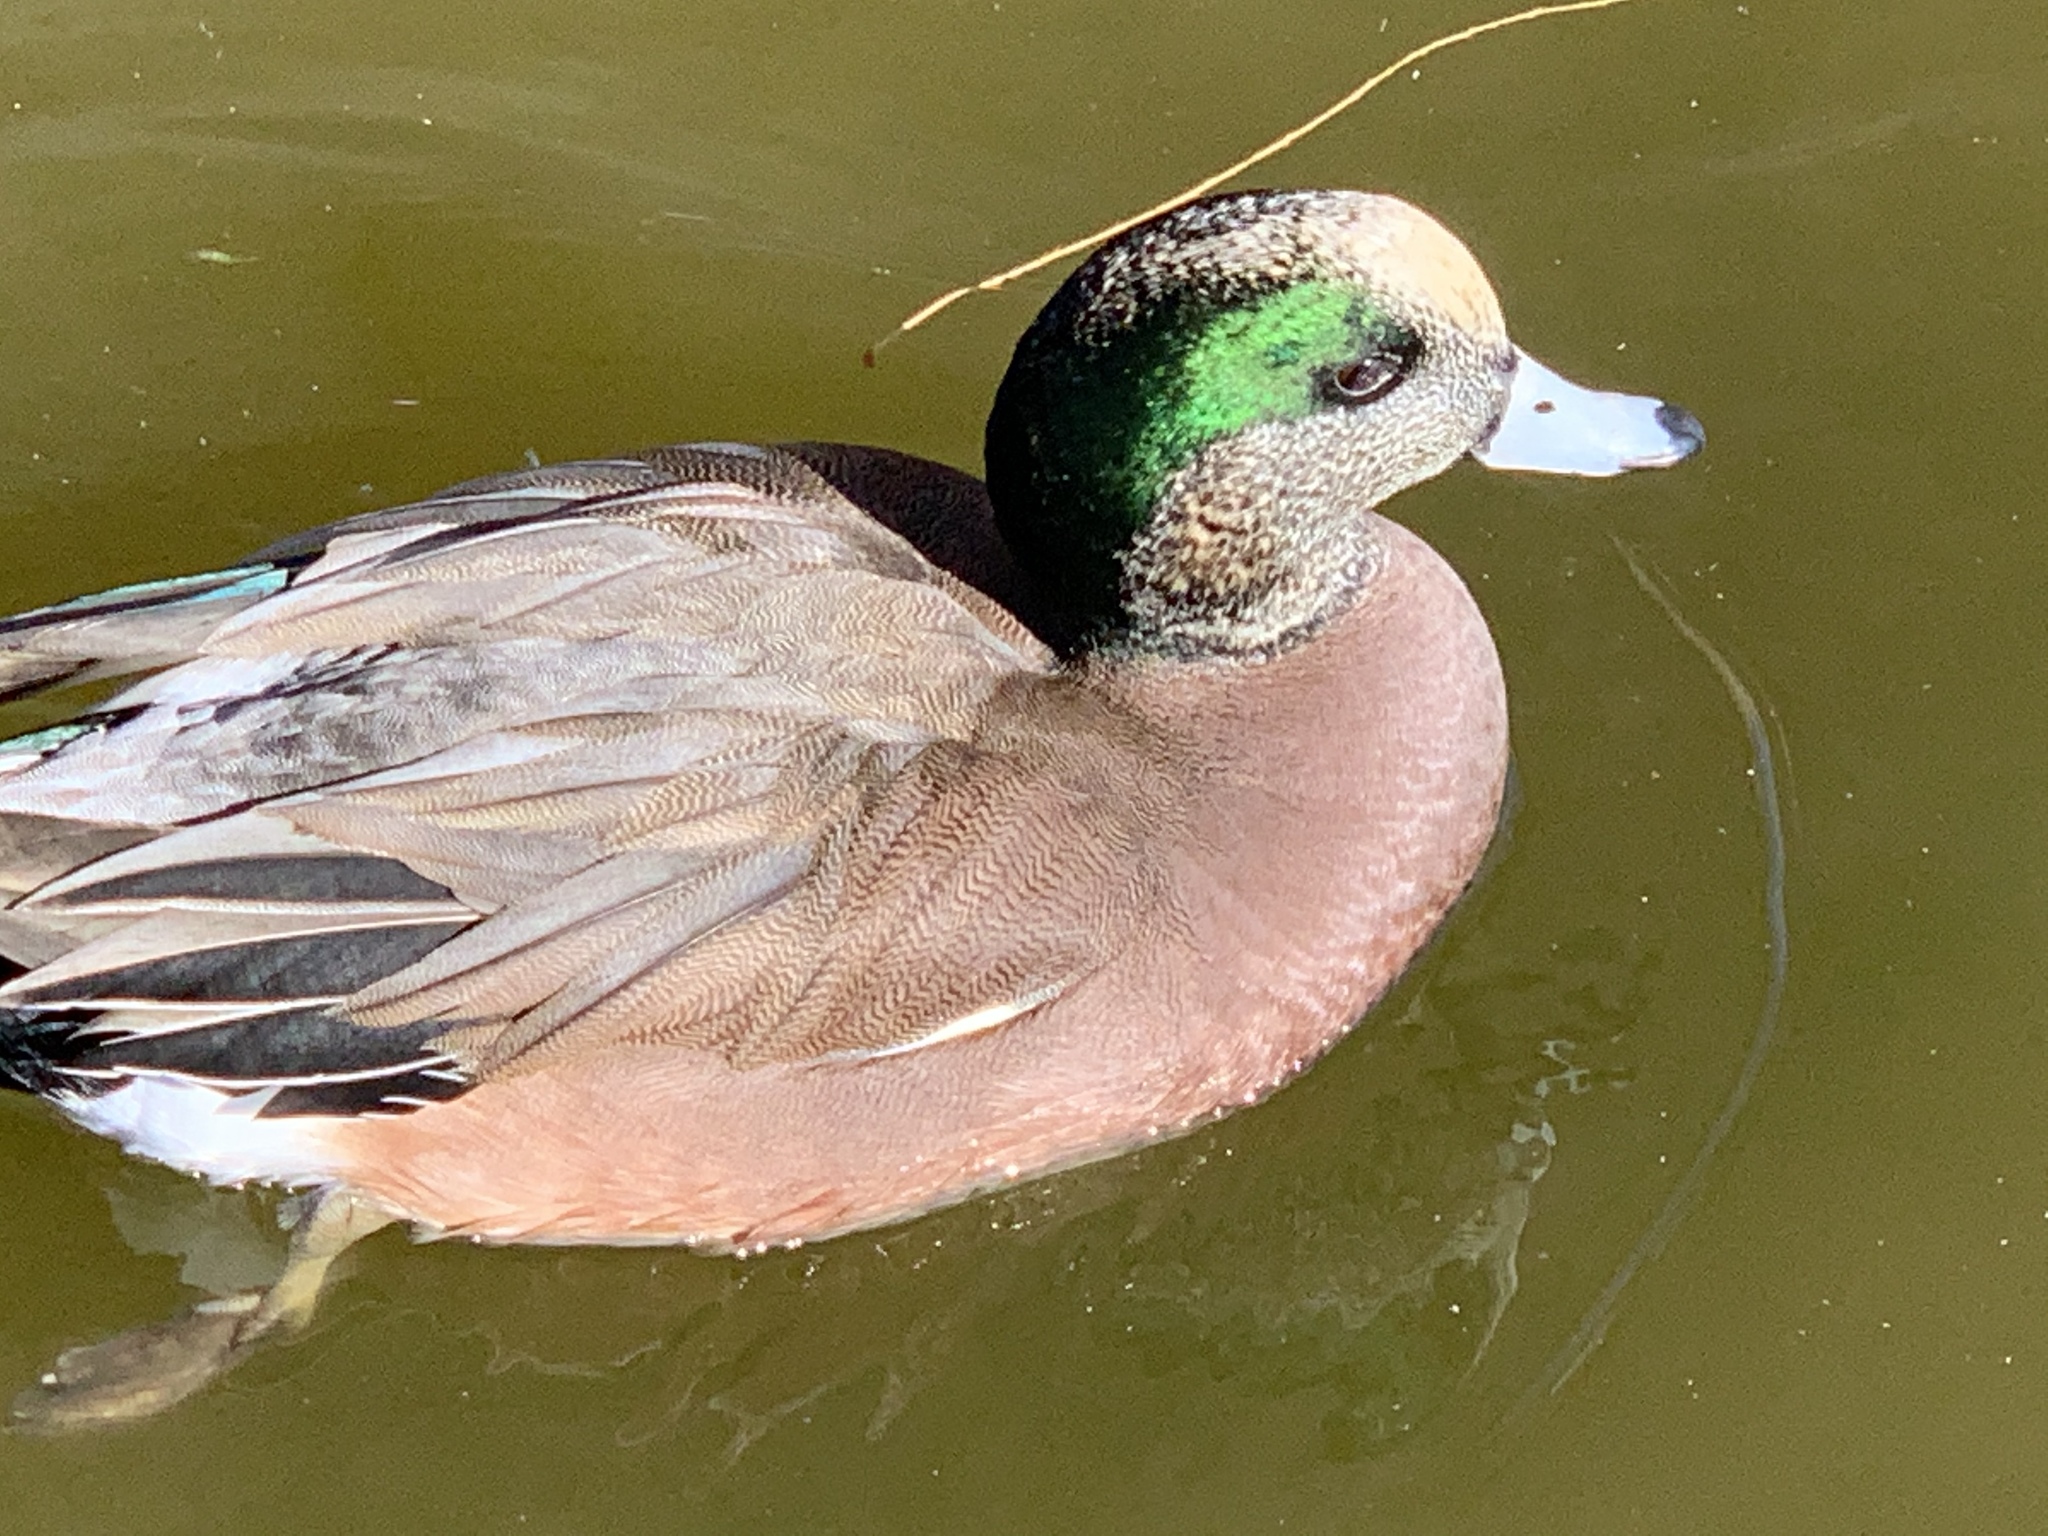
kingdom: Animalia
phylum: Chordata
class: Aves
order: Anseriformes
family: Anatidae
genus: Mareca
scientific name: Mareca americana
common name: American wigeon
